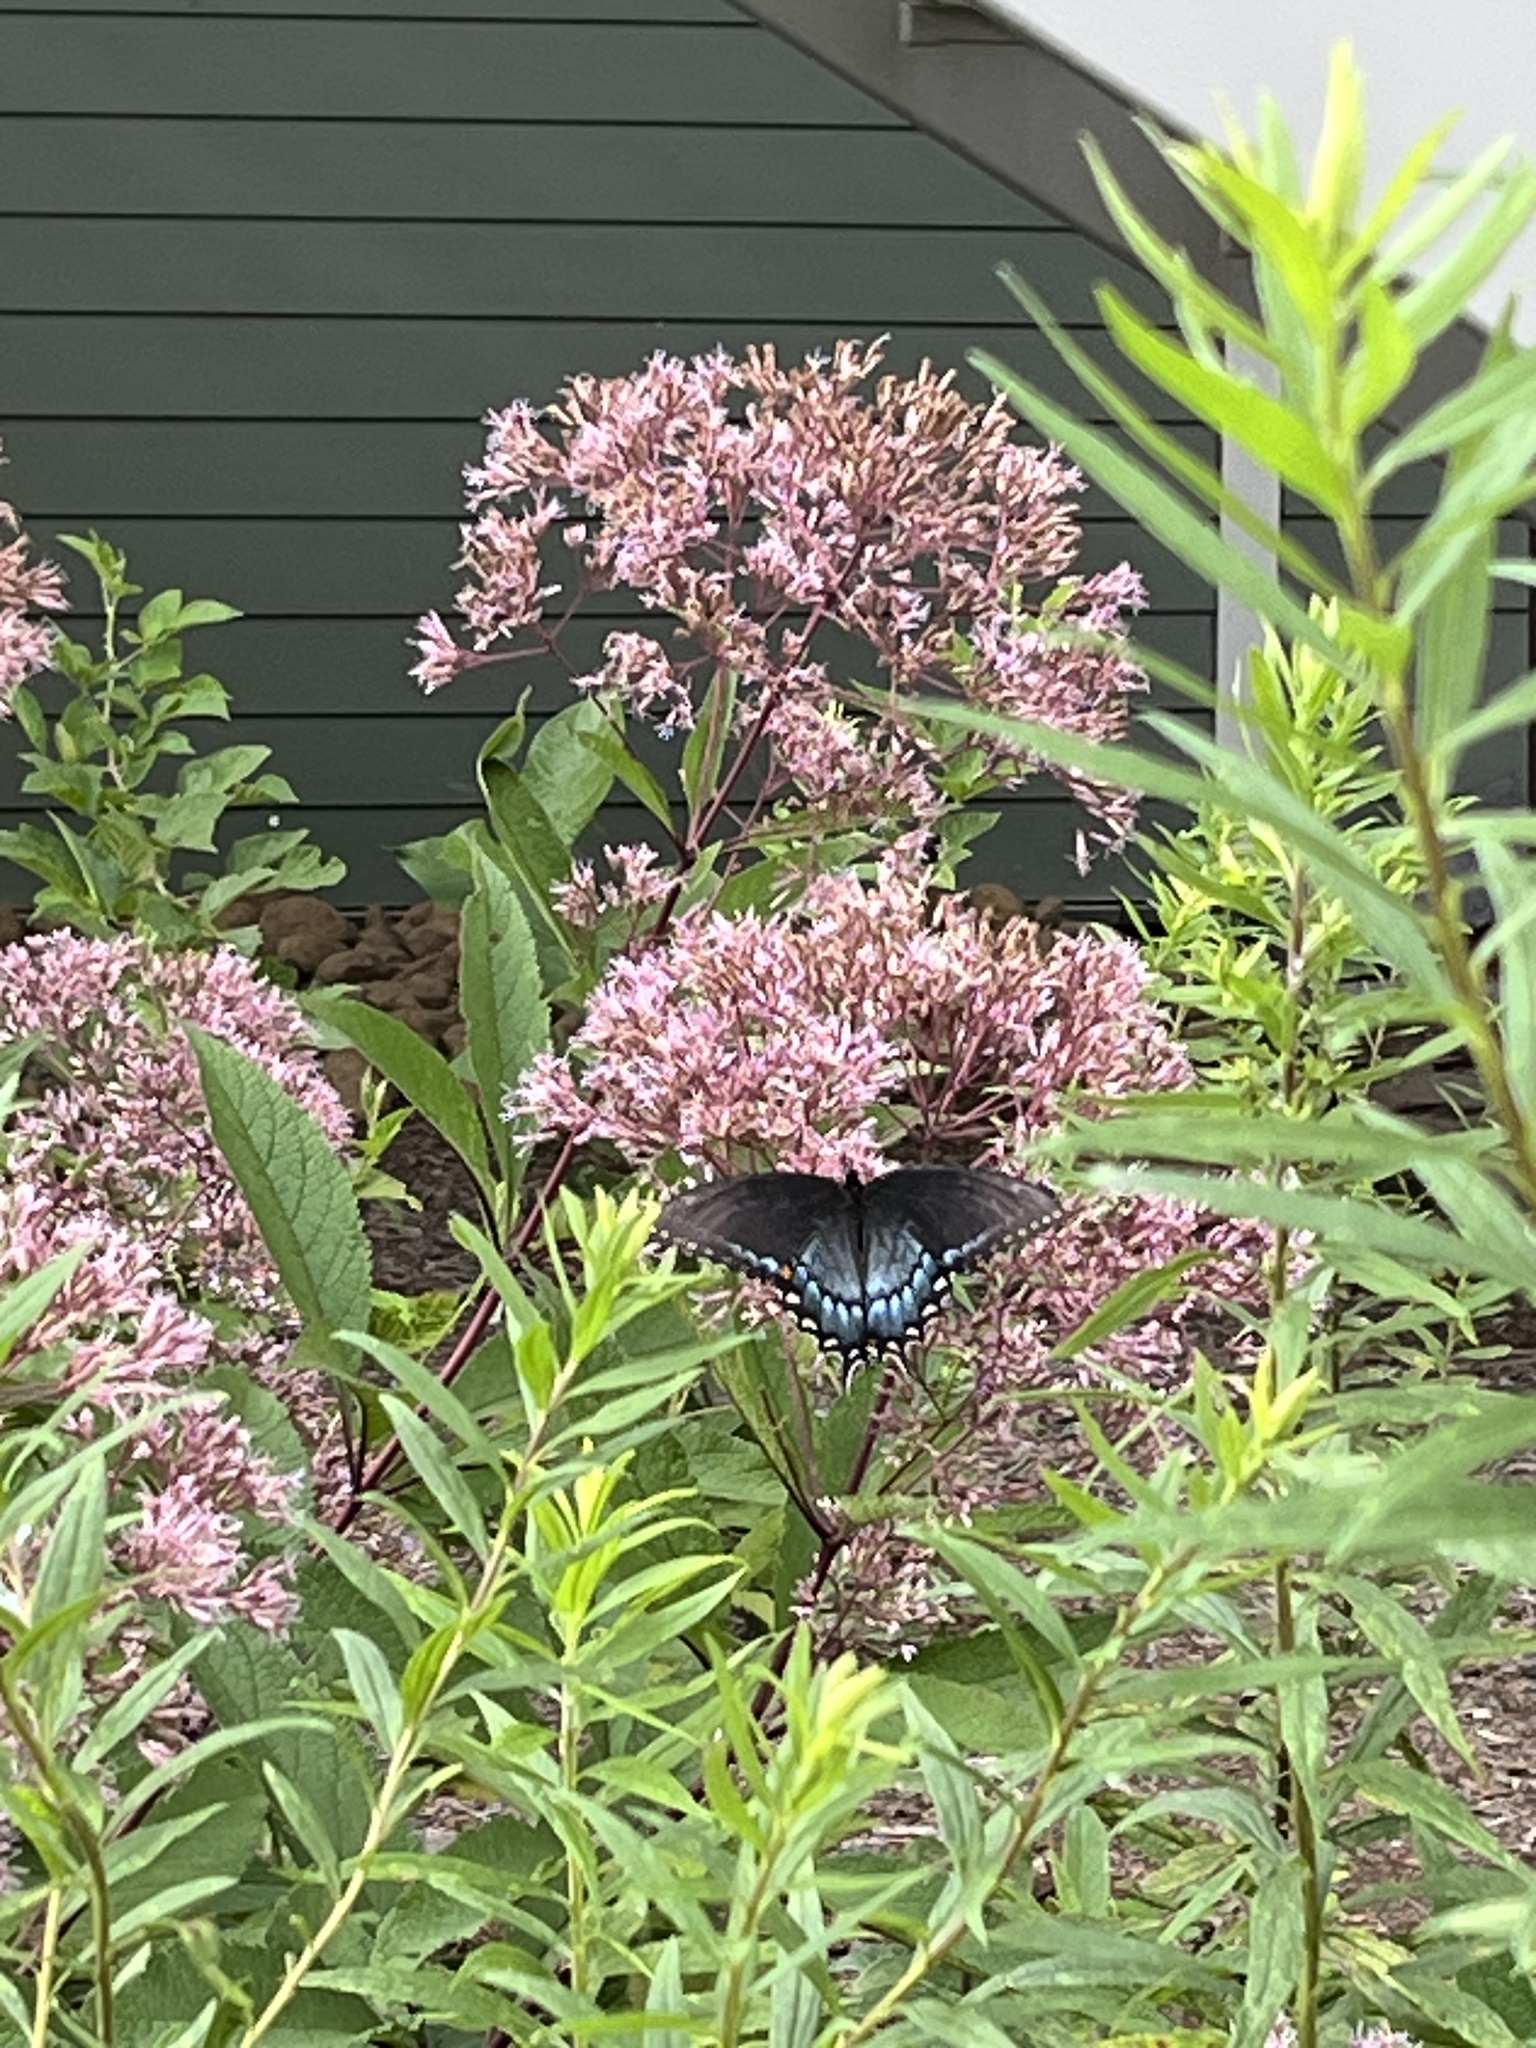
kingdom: Animalia
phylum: Arthropoda
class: Insecta
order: Lepidoptera
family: Papilionidae
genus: Papilio
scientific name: Papilio glaucus
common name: Tiger swallowtail
